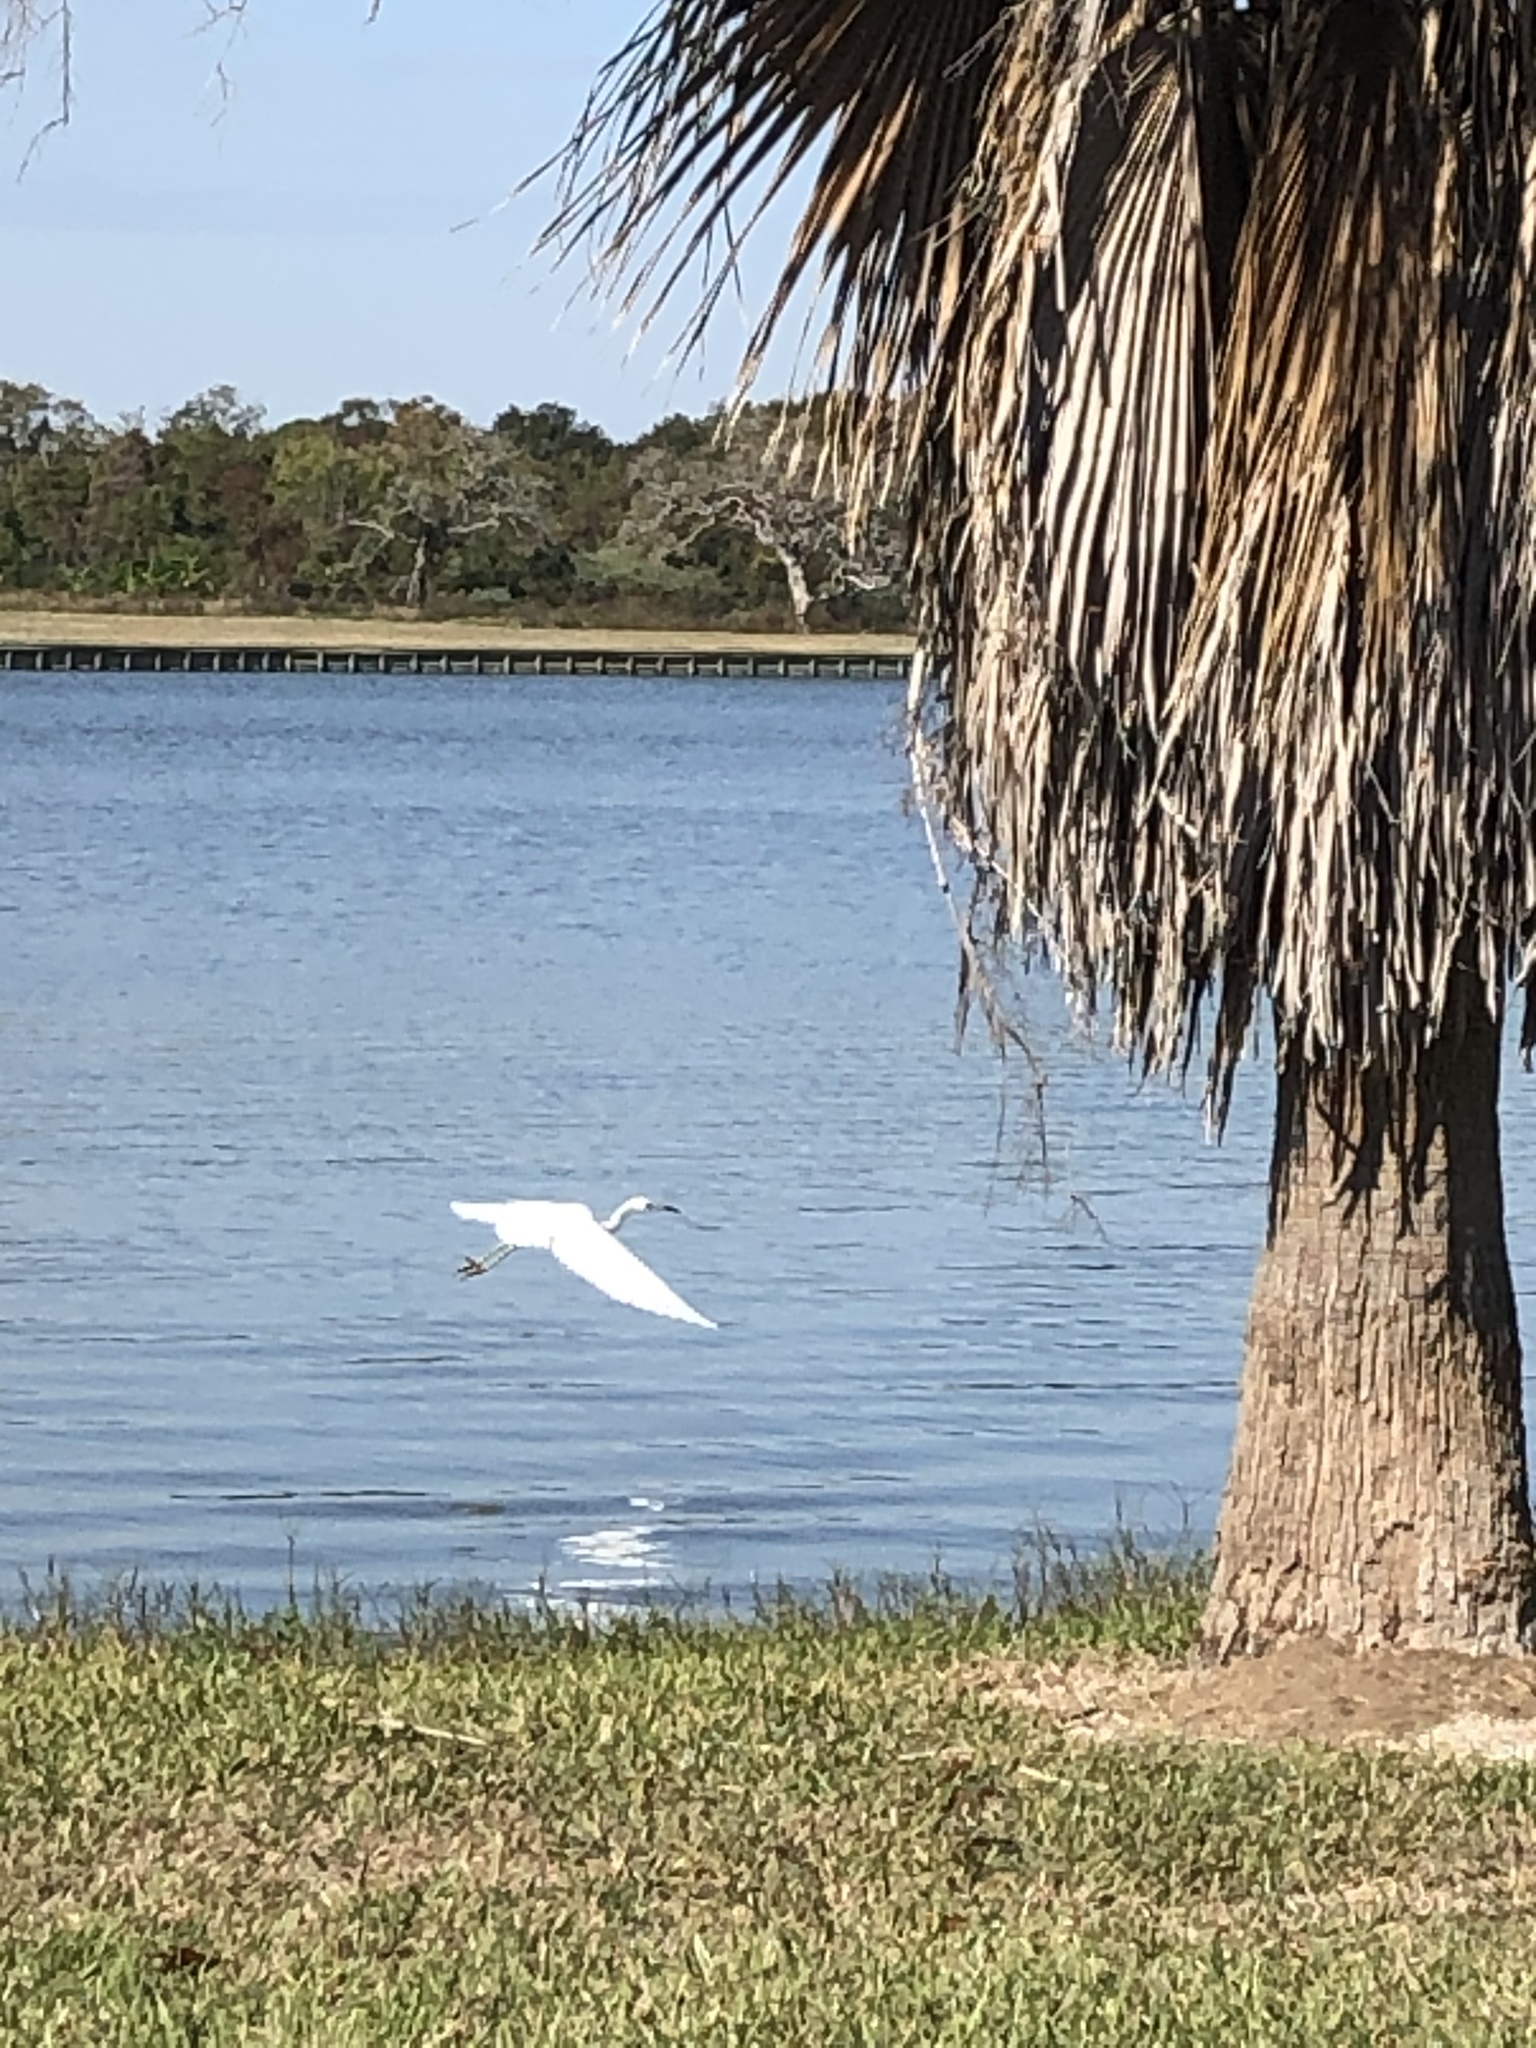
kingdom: Animalia
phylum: Chordata
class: Aves
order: Pelecaniformes
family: Ardeidae
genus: Egretta
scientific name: Egretta caerulea
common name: Little blue heron
